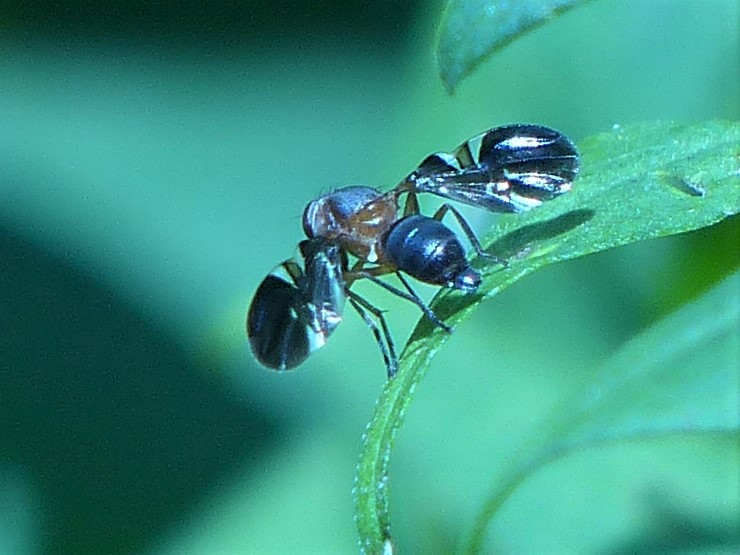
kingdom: Animalia
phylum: Arthropoda
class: Insecta
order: Diptera
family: Ulidiidae
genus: Delphinia
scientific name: Delphinia picta
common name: Common picture-winged fly
